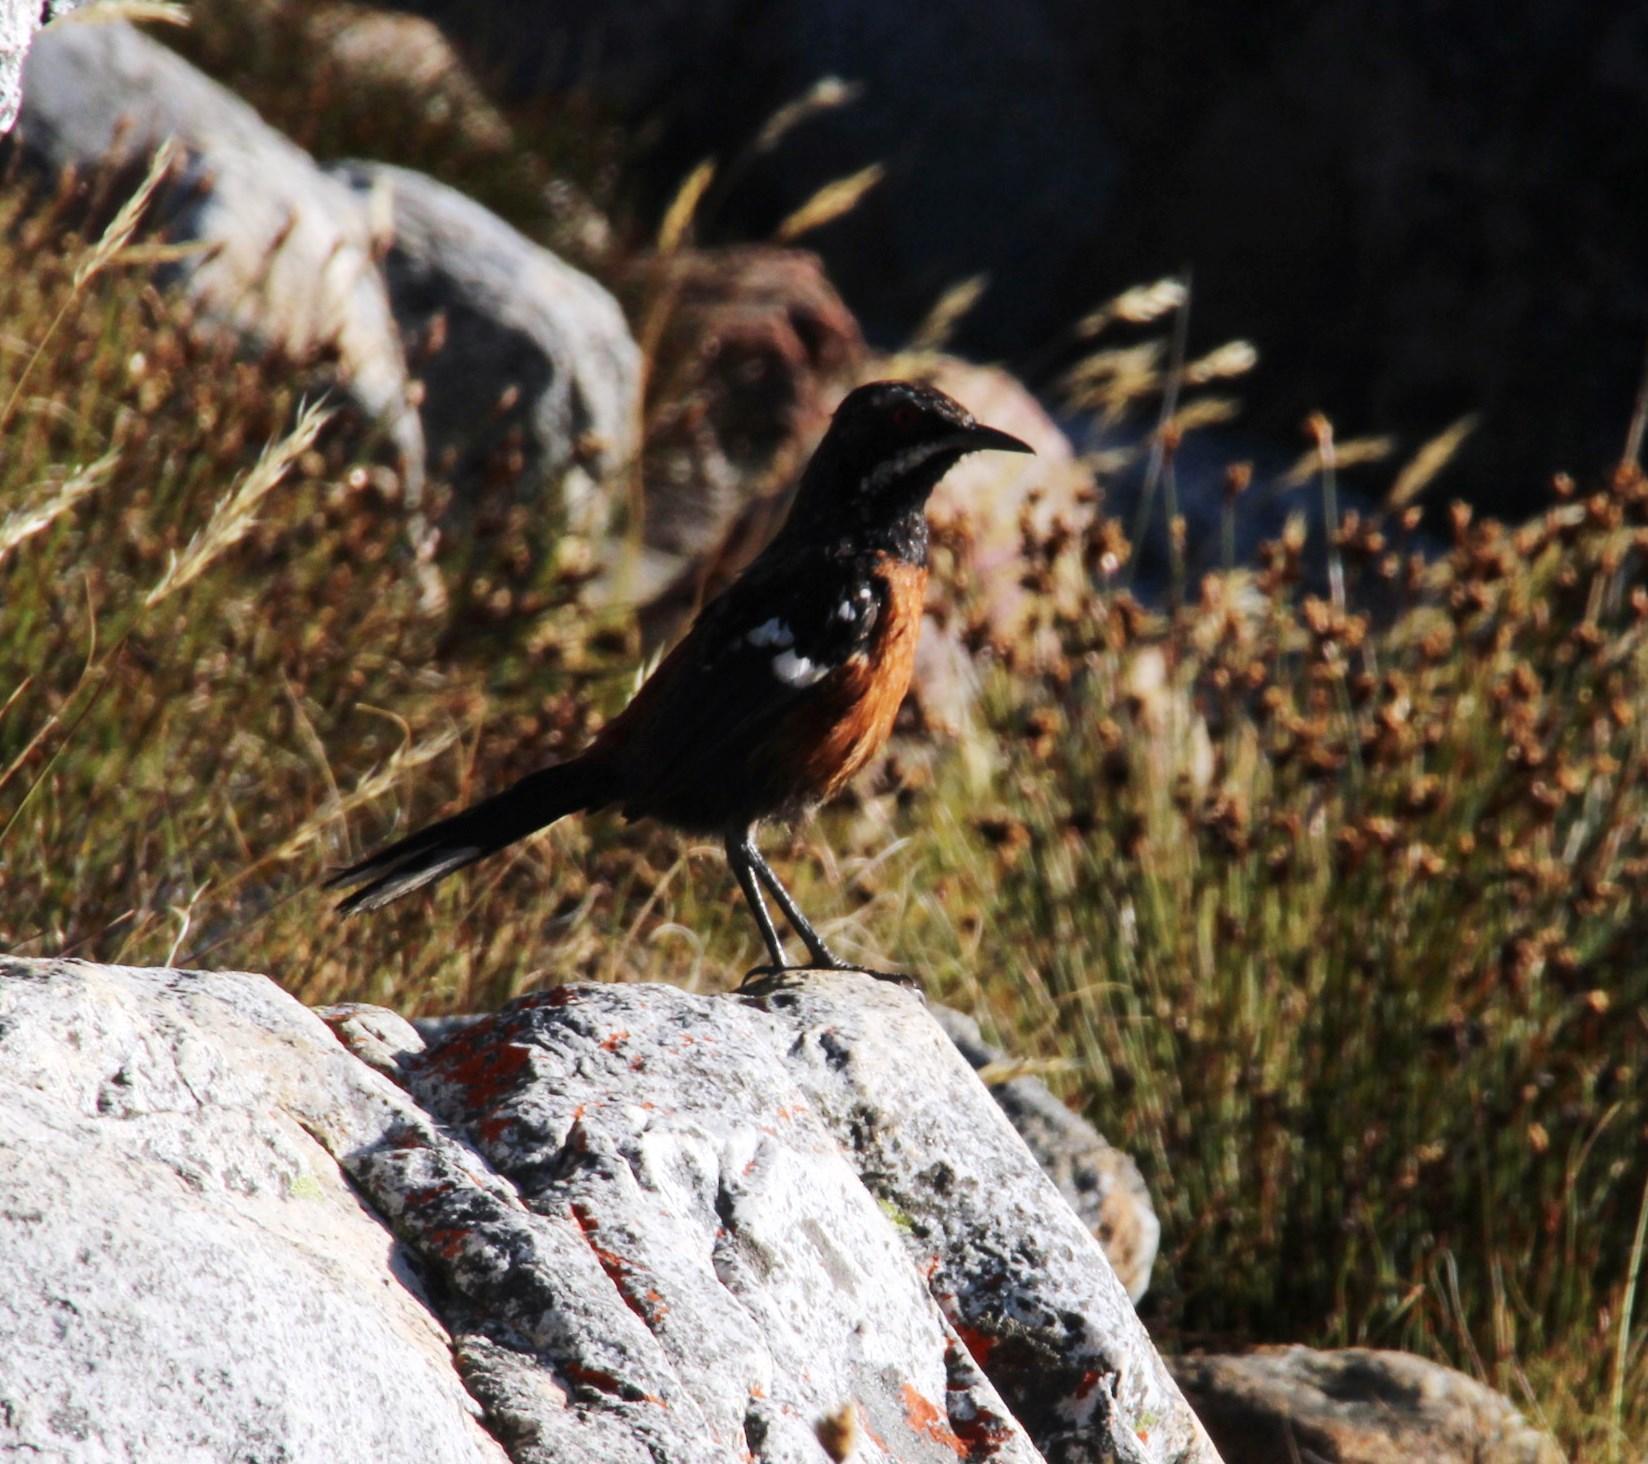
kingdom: Animalia
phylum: Chordata
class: Aves
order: Passeriformes
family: Chaetopidae
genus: Chaetops
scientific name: Chaetops frenatus
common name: Cape rockjumper
